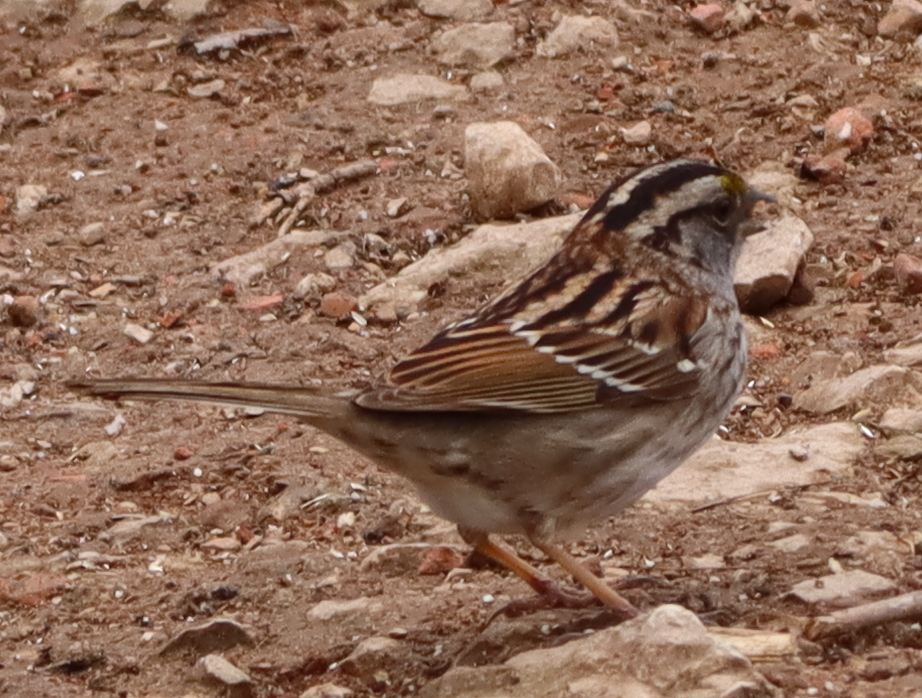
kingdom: Animalia
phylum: Chordata
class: Aves
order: Passeriformes
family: Passerellidae
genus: Zonotrichia
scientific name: Zonotrichia albicollis
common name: White-throated sparrow
